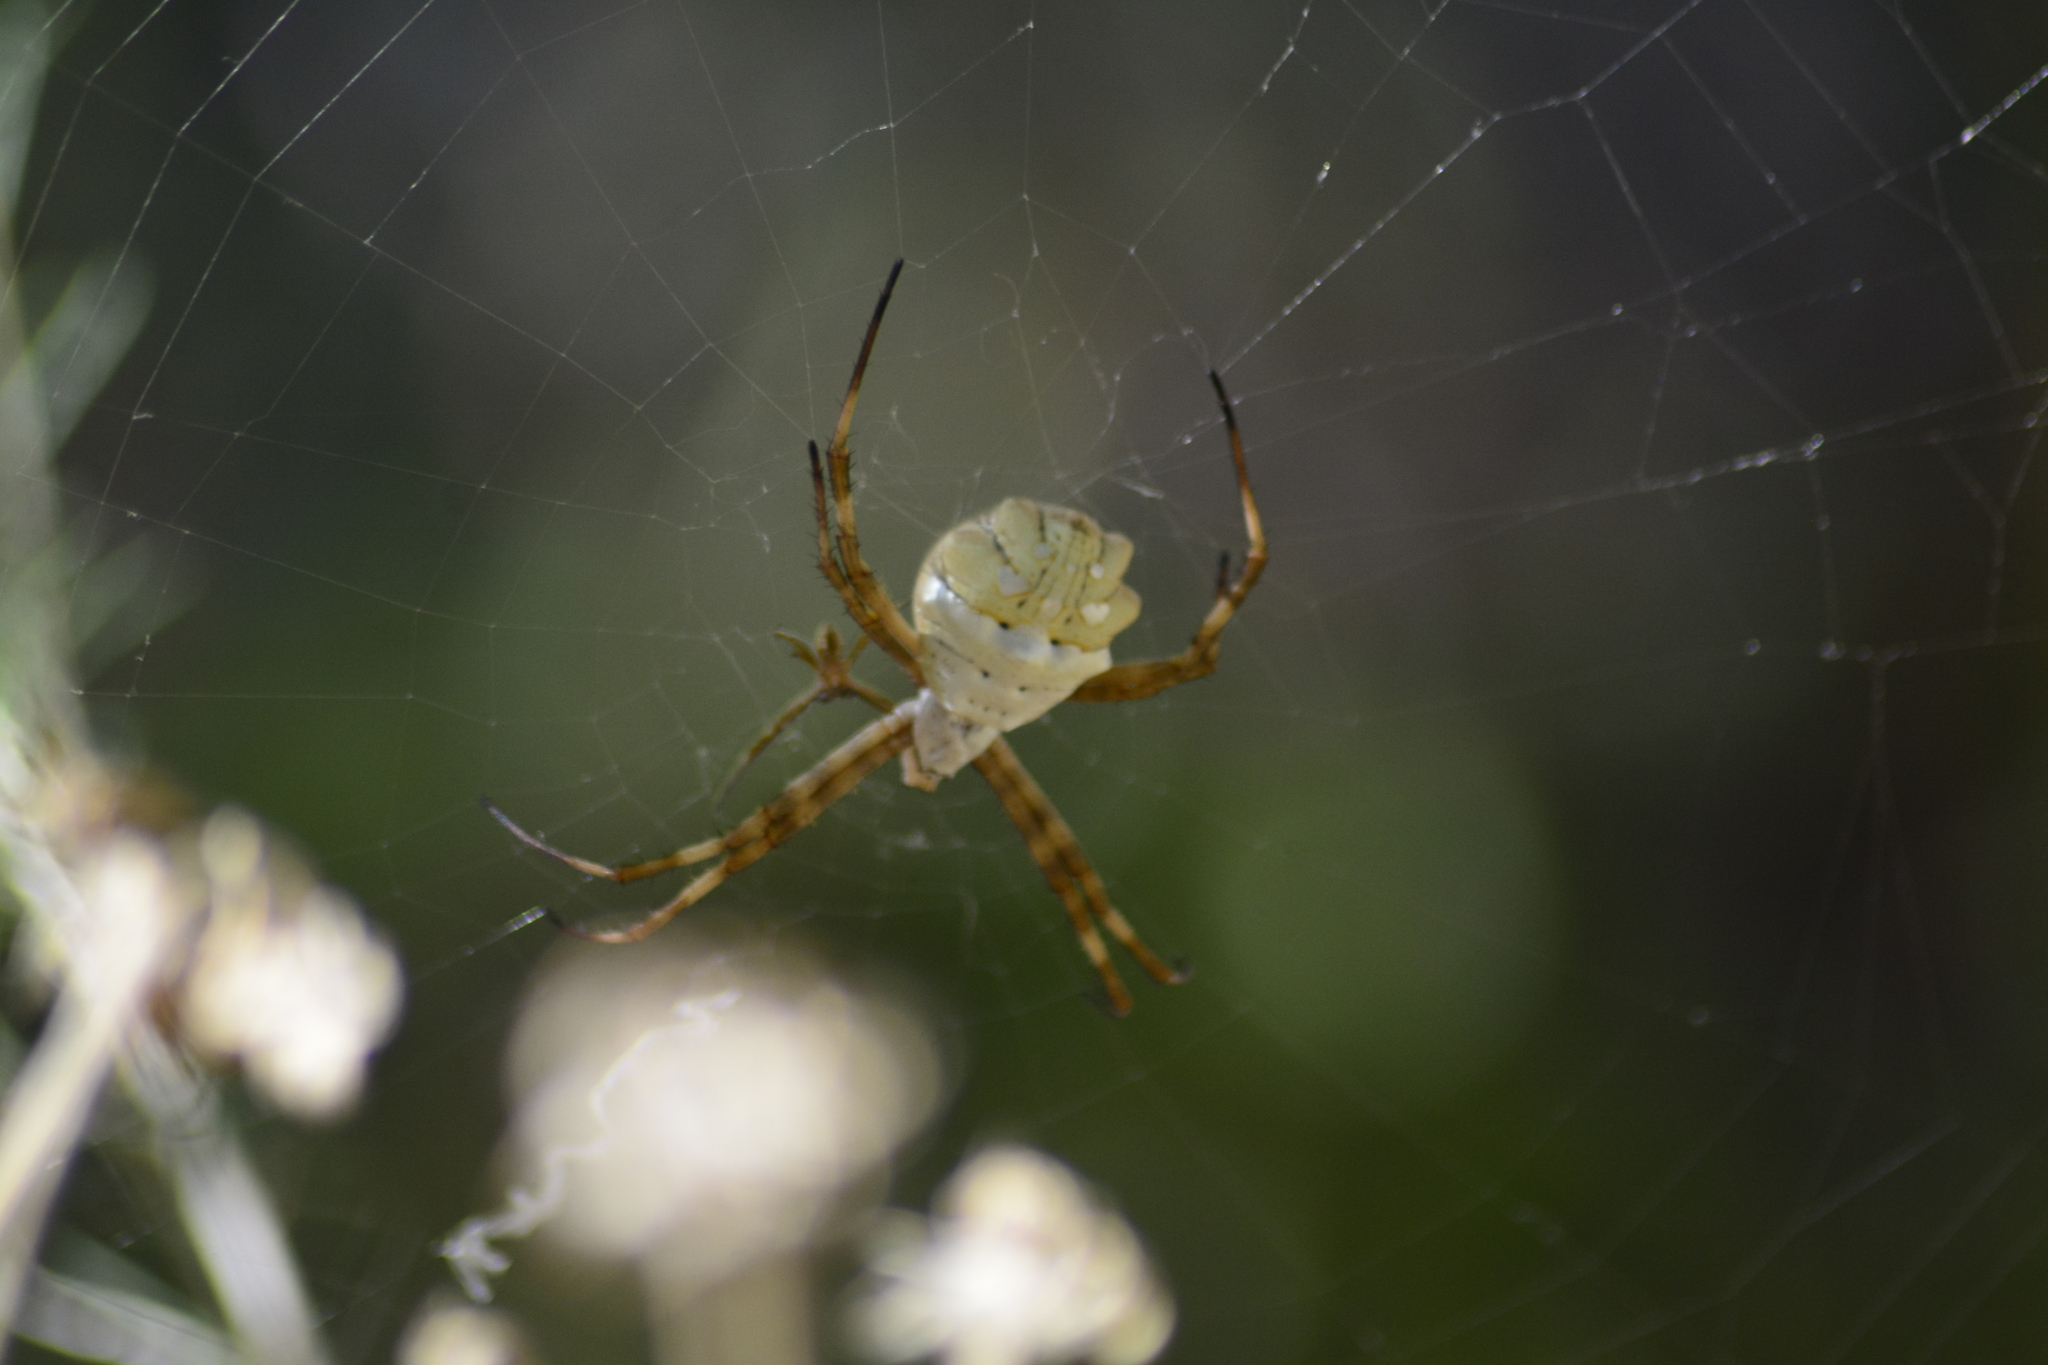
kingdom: Animalia
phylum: Arthropoda
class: Arachnida
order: Araneae
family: Araneidae
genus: Argiope
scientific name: Argiope argentata
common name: Orb weavers
